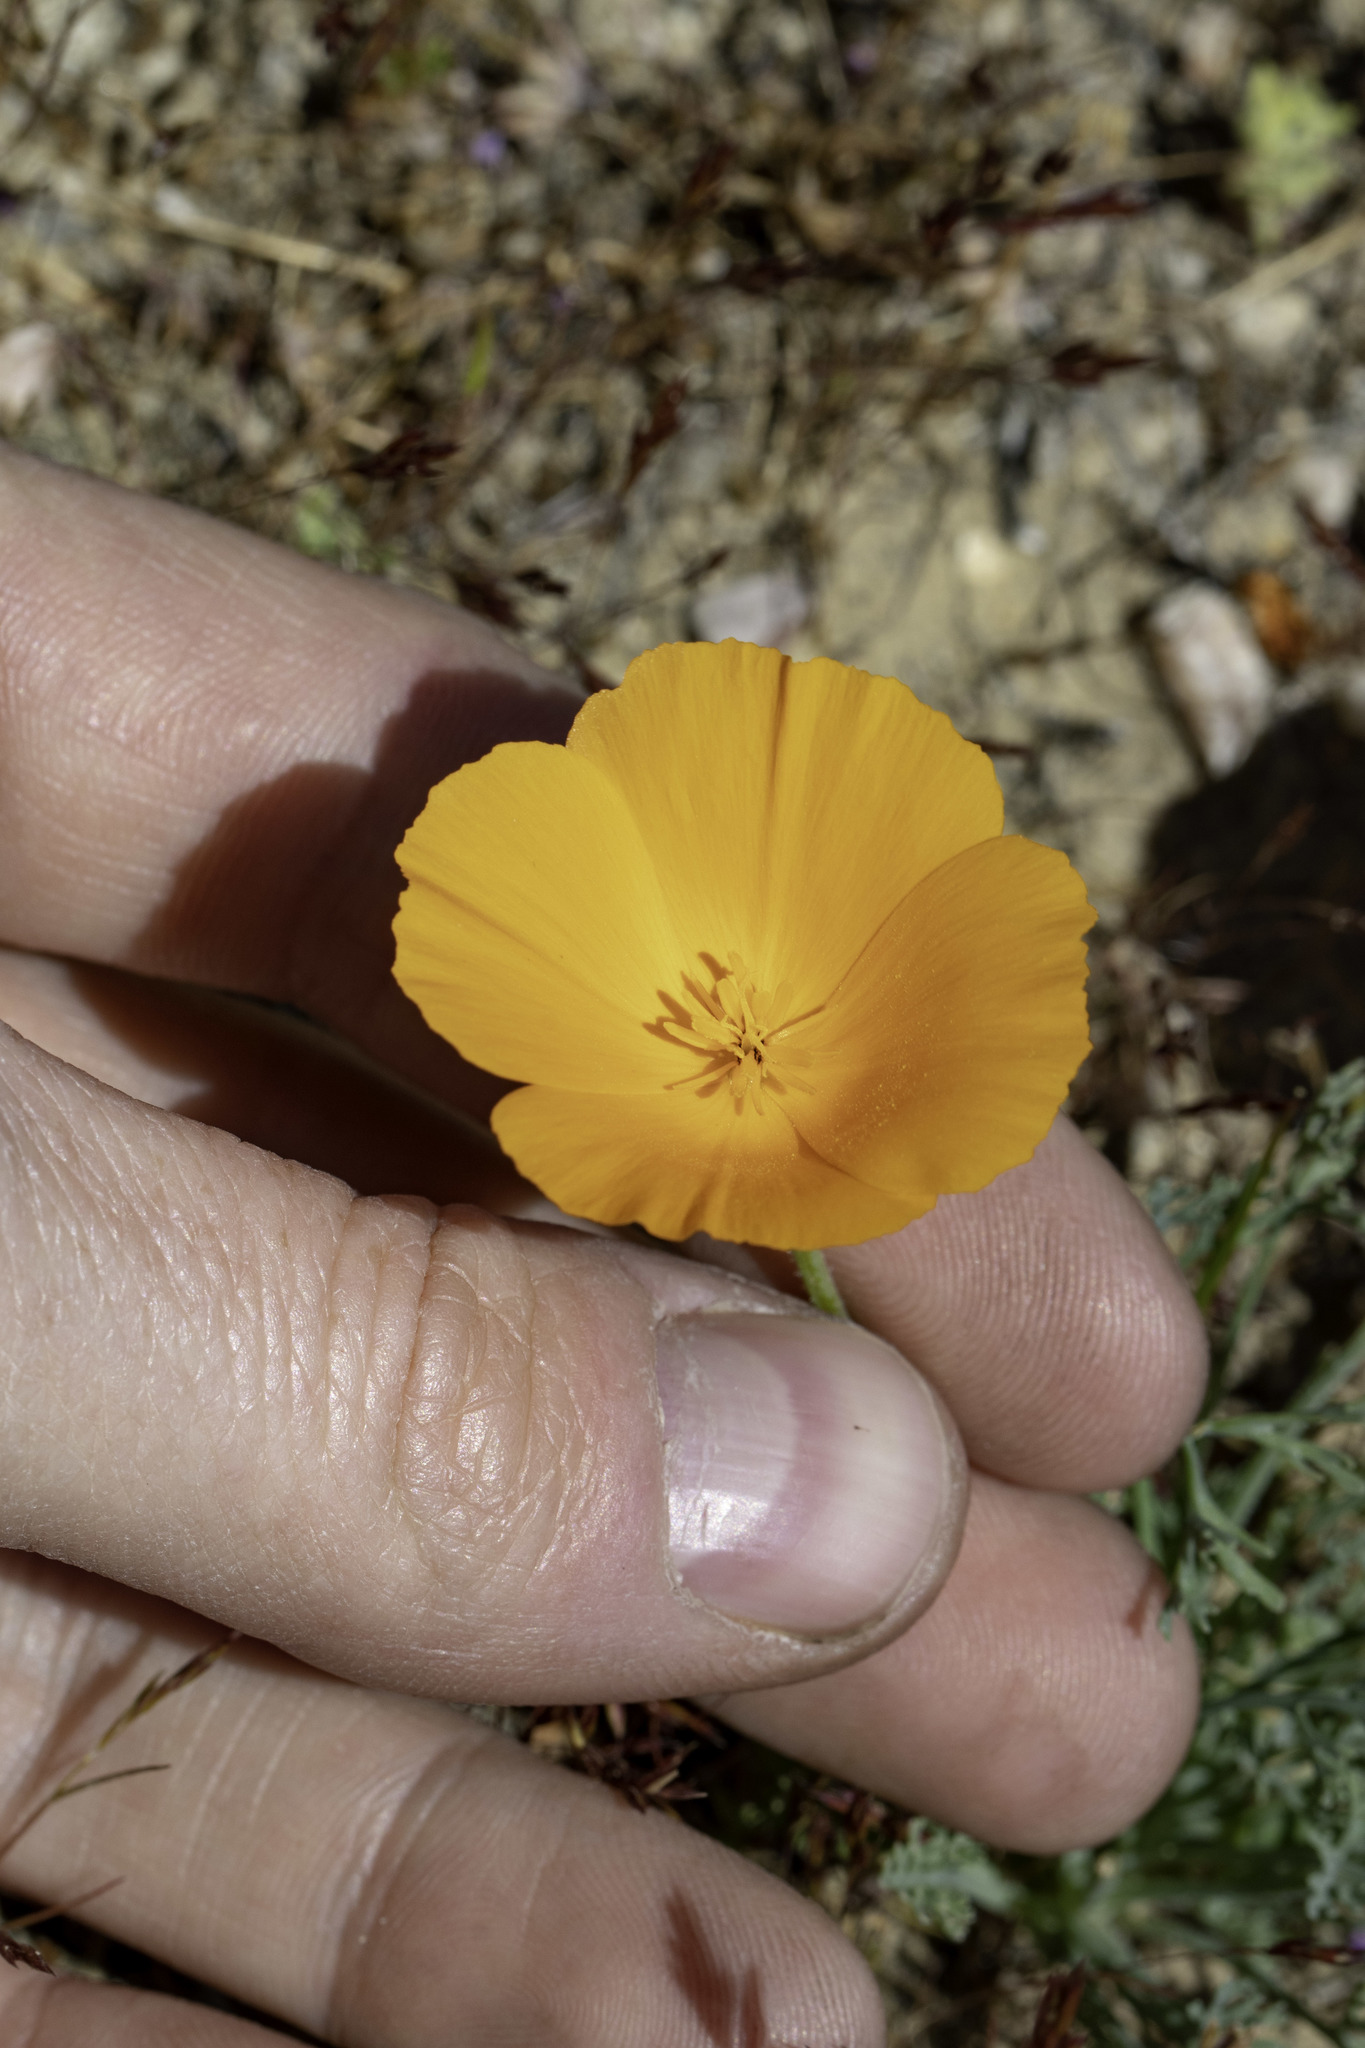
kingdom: Plantae
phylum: Tracheophyta
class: Magnoliopsida
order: Ranunculales
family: Papaveraceae
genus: Eschscholzia
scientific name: Eschscholzia lemmonii
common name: Lemmon's poppy
